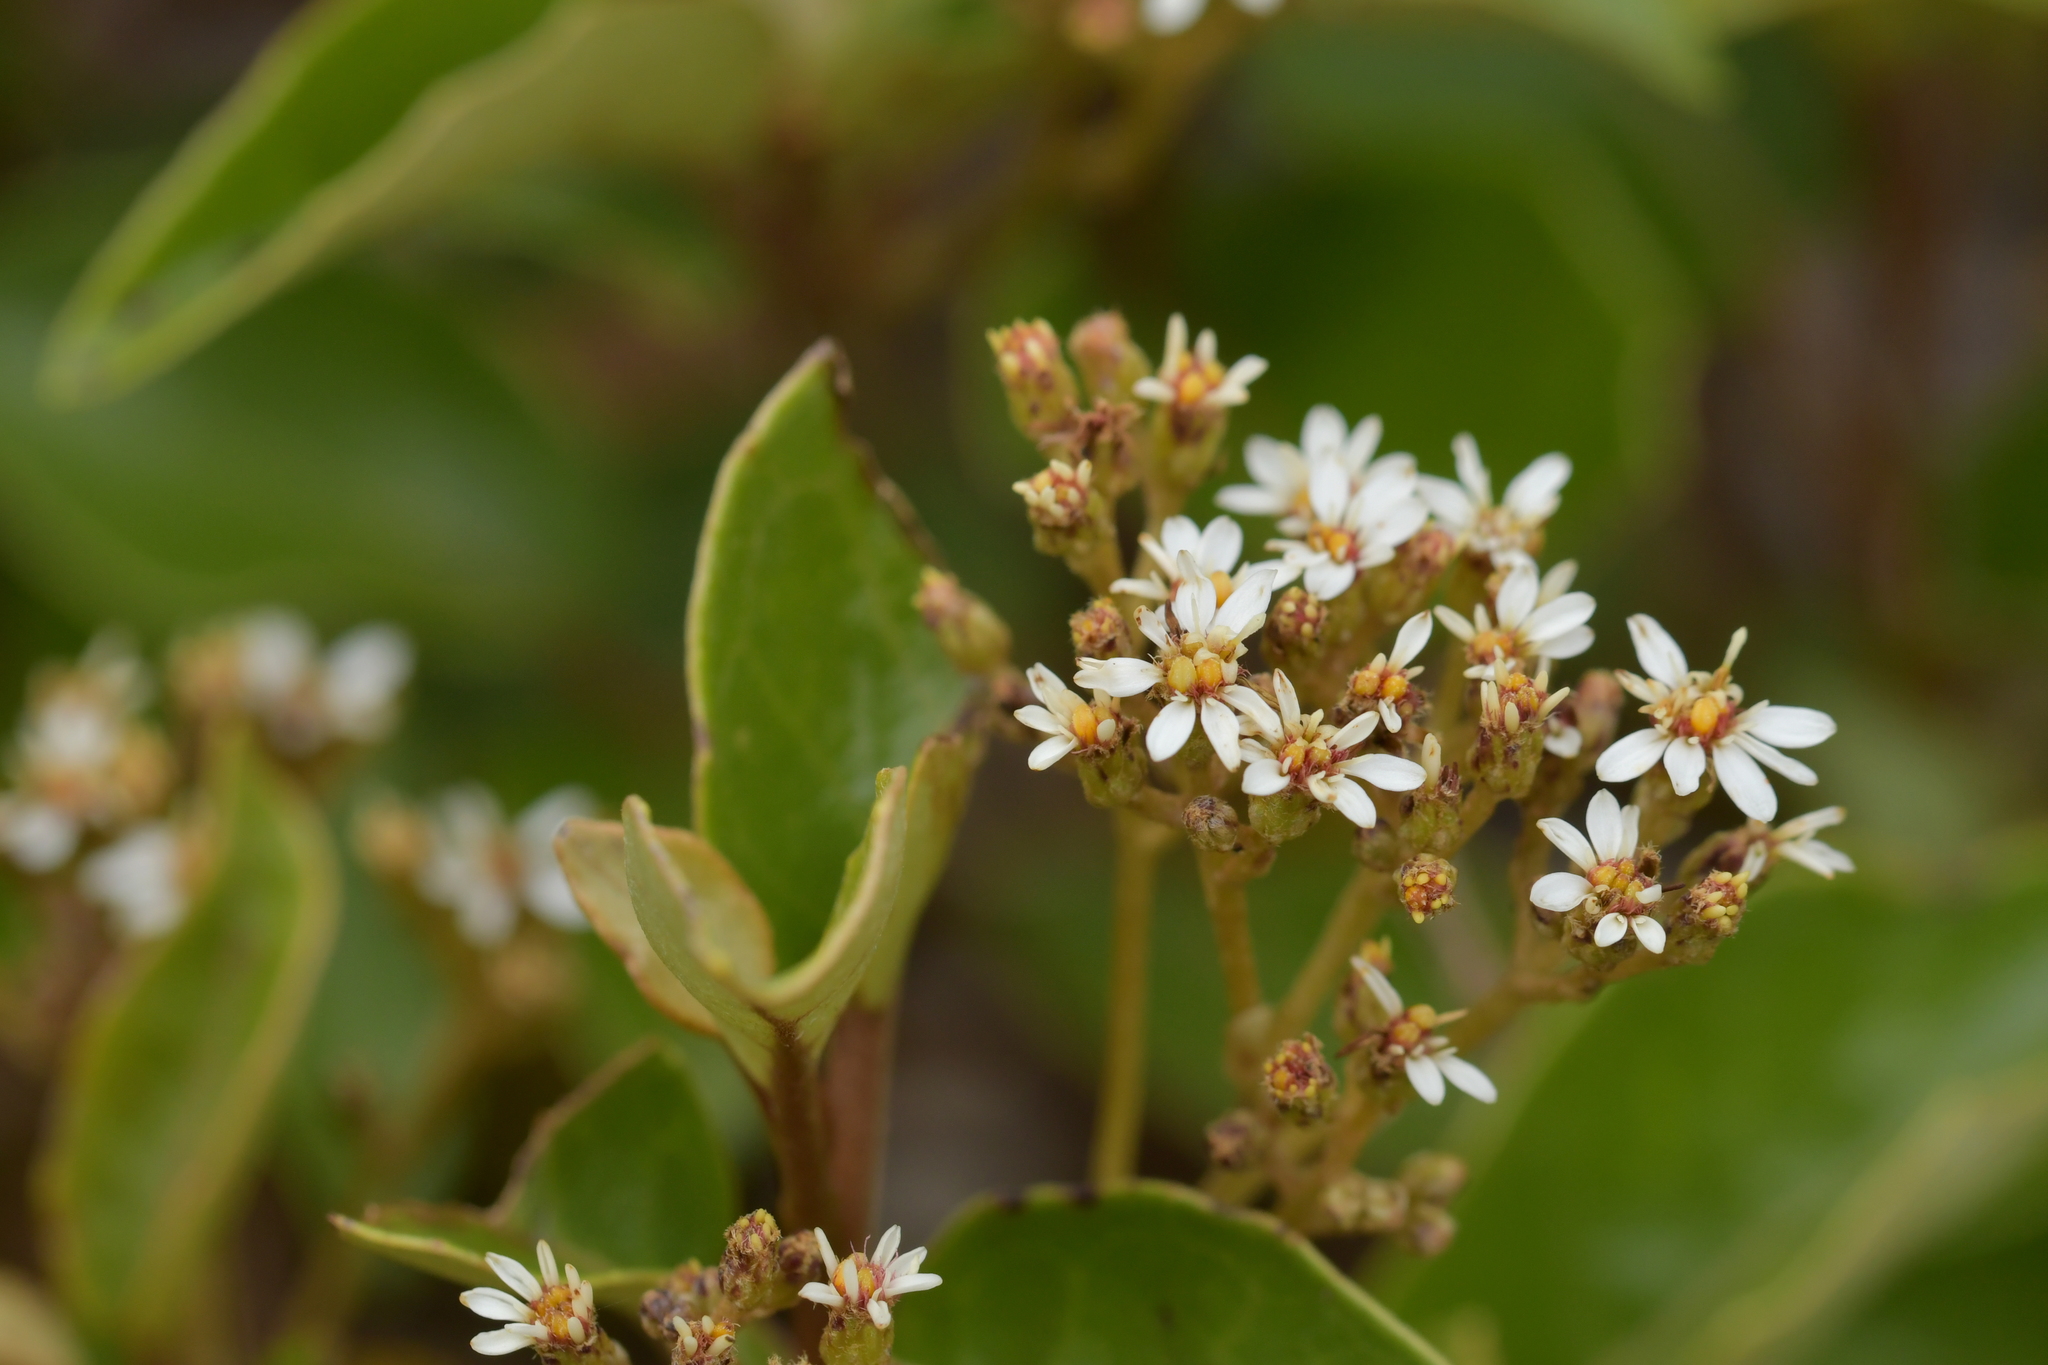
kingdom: Plantae
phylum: Tracheophyta
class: Magnoliopsida
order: Asterales
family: Asteraceae
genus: Olearia
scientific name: Olearia arborescens
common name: Glossy tree daisy
